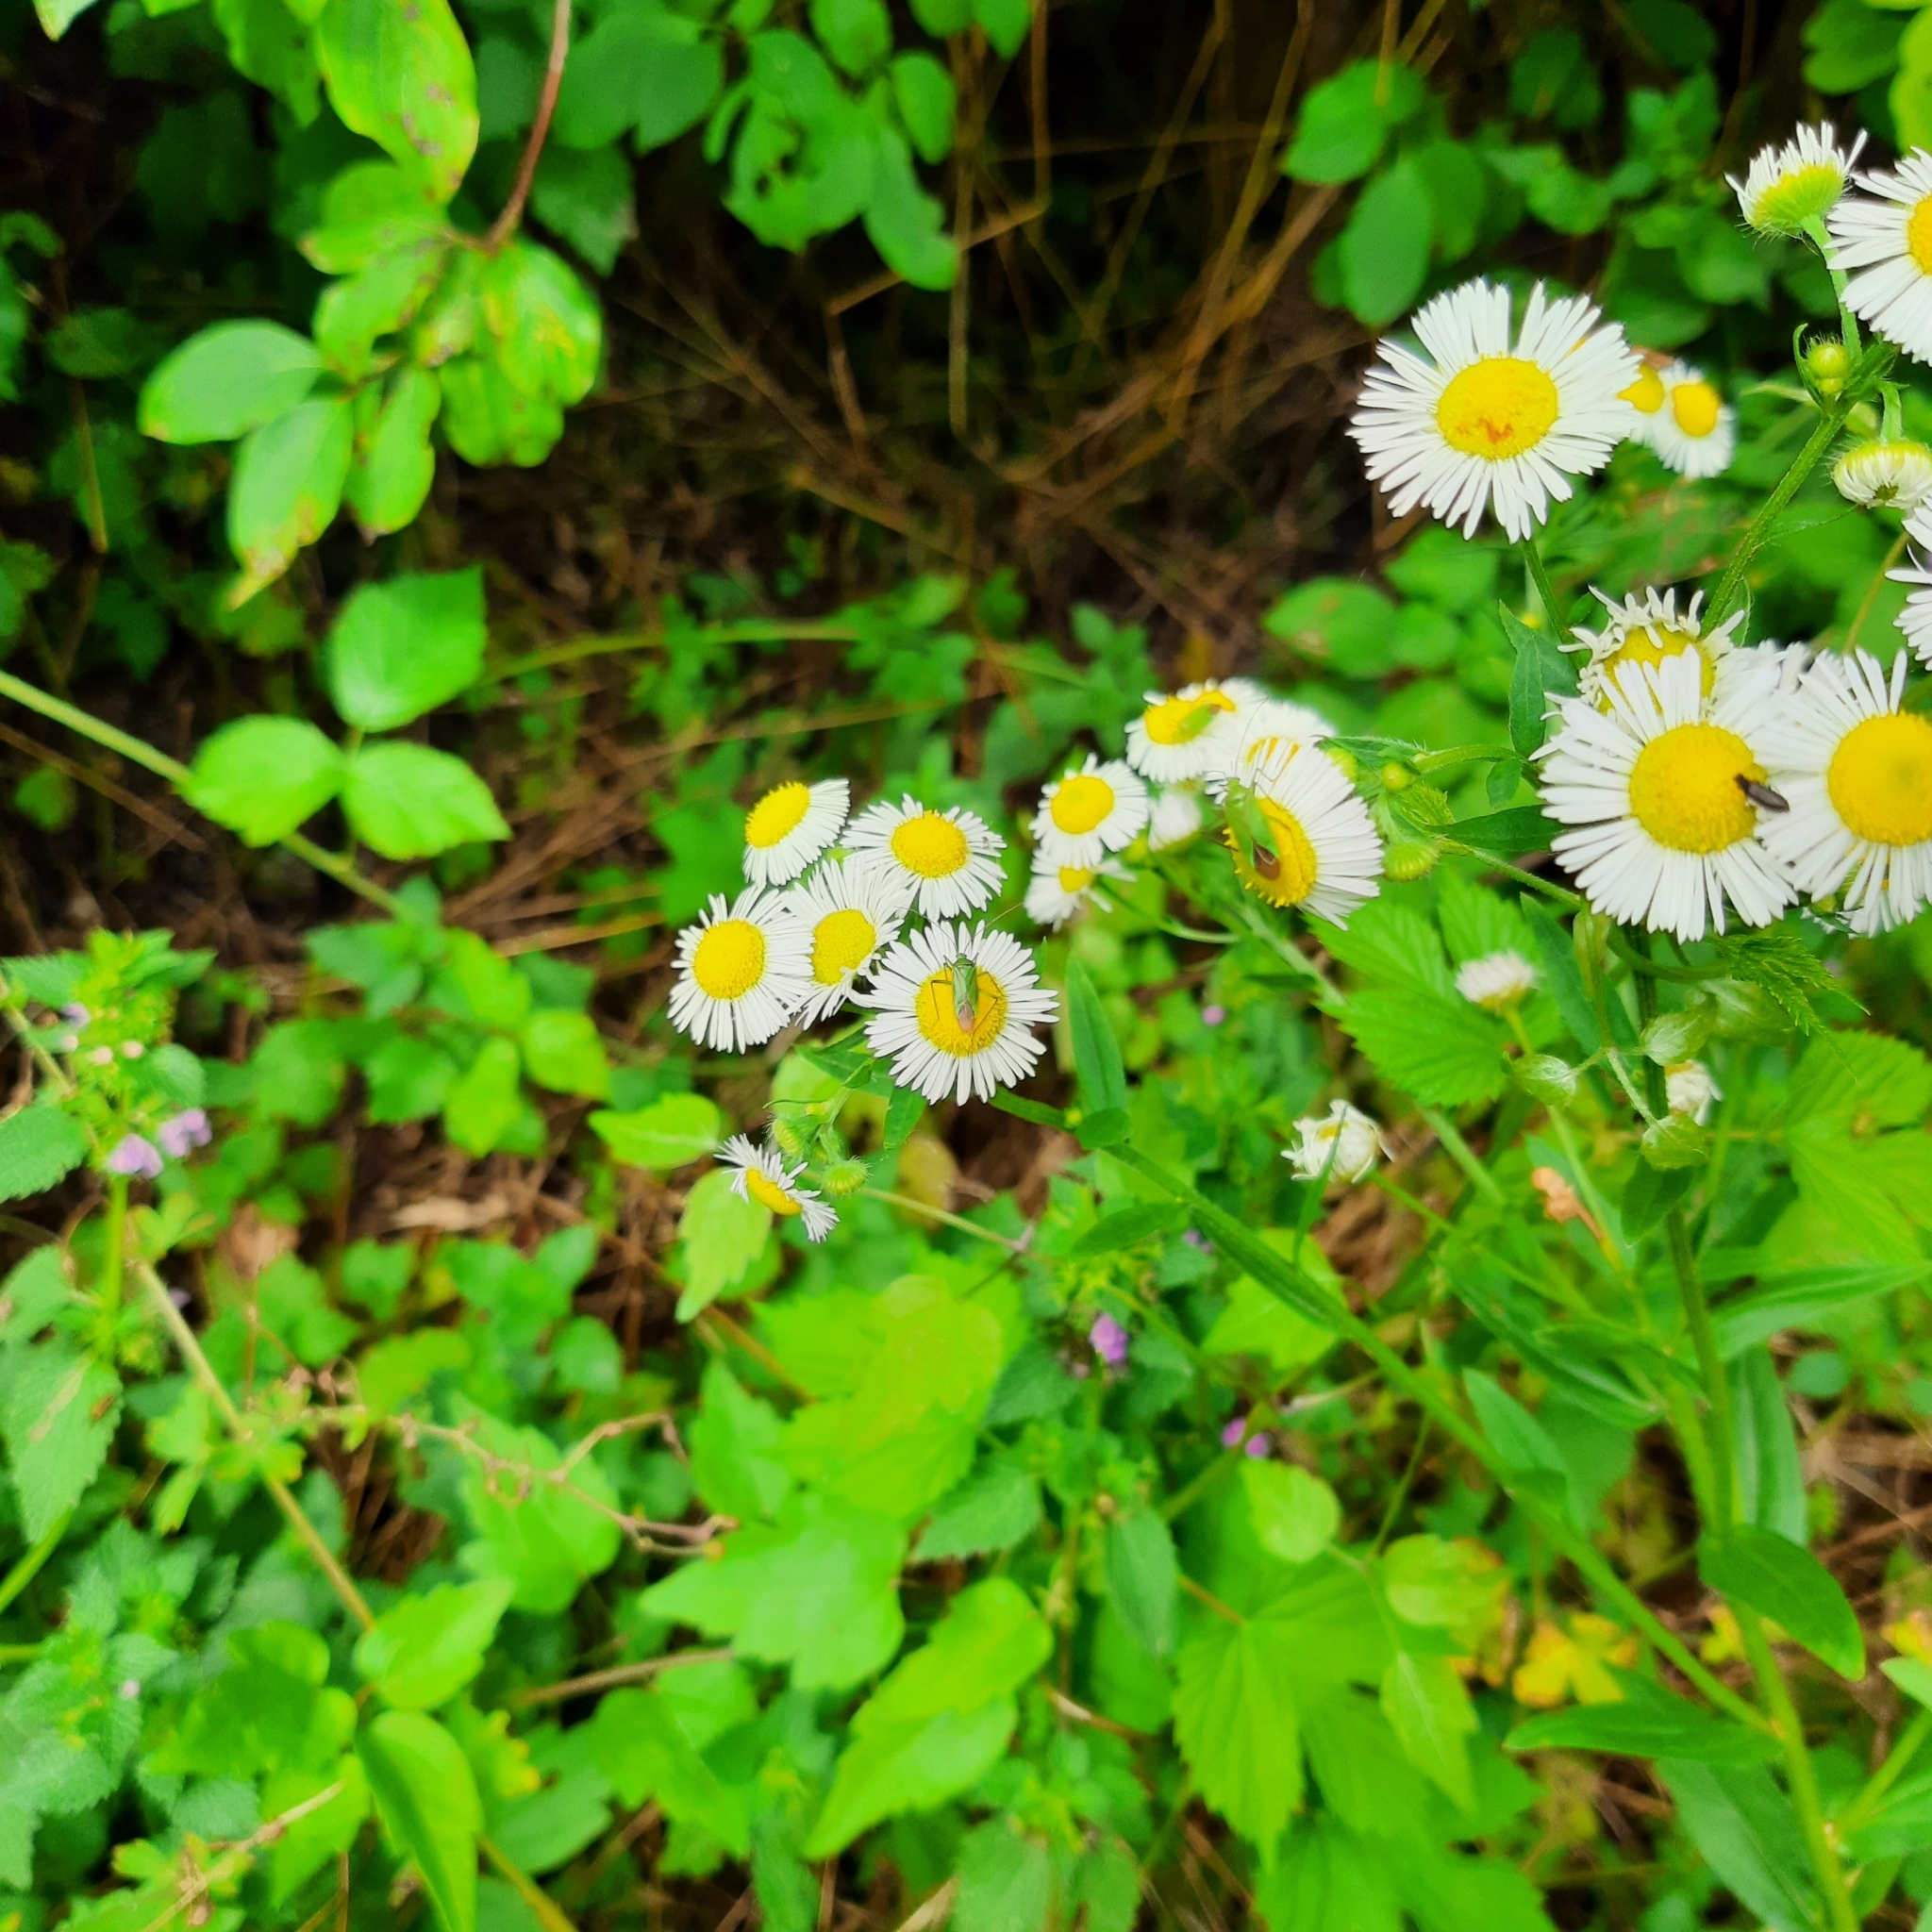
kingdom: Plantae
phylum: Tracheophyta
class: Magnoliopsida
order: Asterales
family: Asteraceae
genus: Erigeron
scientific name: Erigeron
